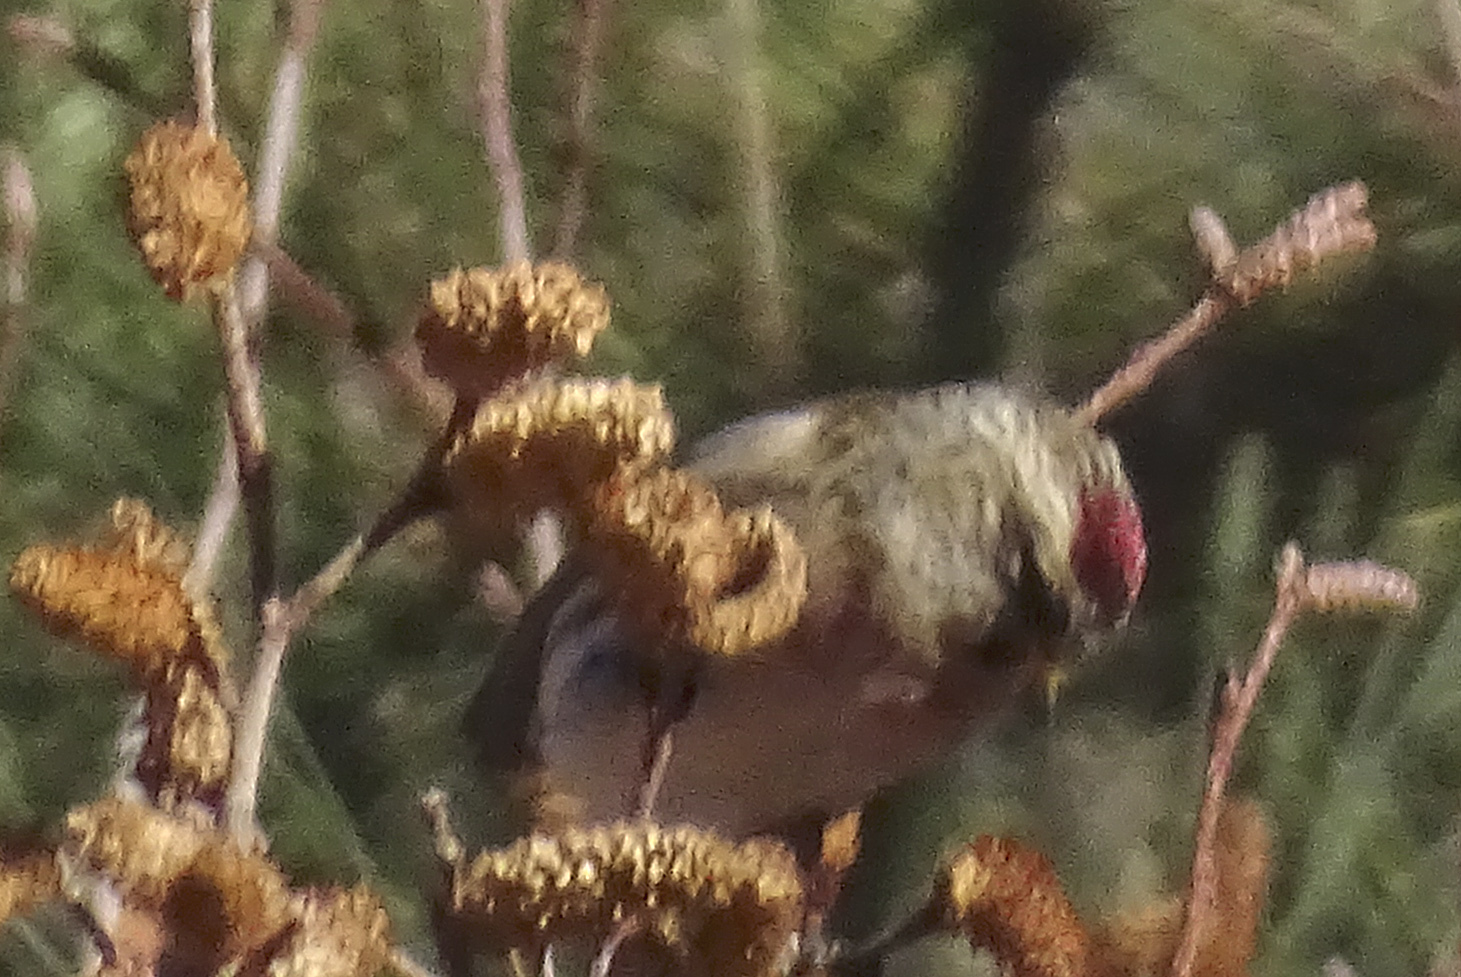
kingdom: Animalia
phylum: Chordata
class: Aves
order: Passeriformes
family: Fringillidae
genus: Acanthis
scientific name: Acanthis flammea
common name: Common redpoll
